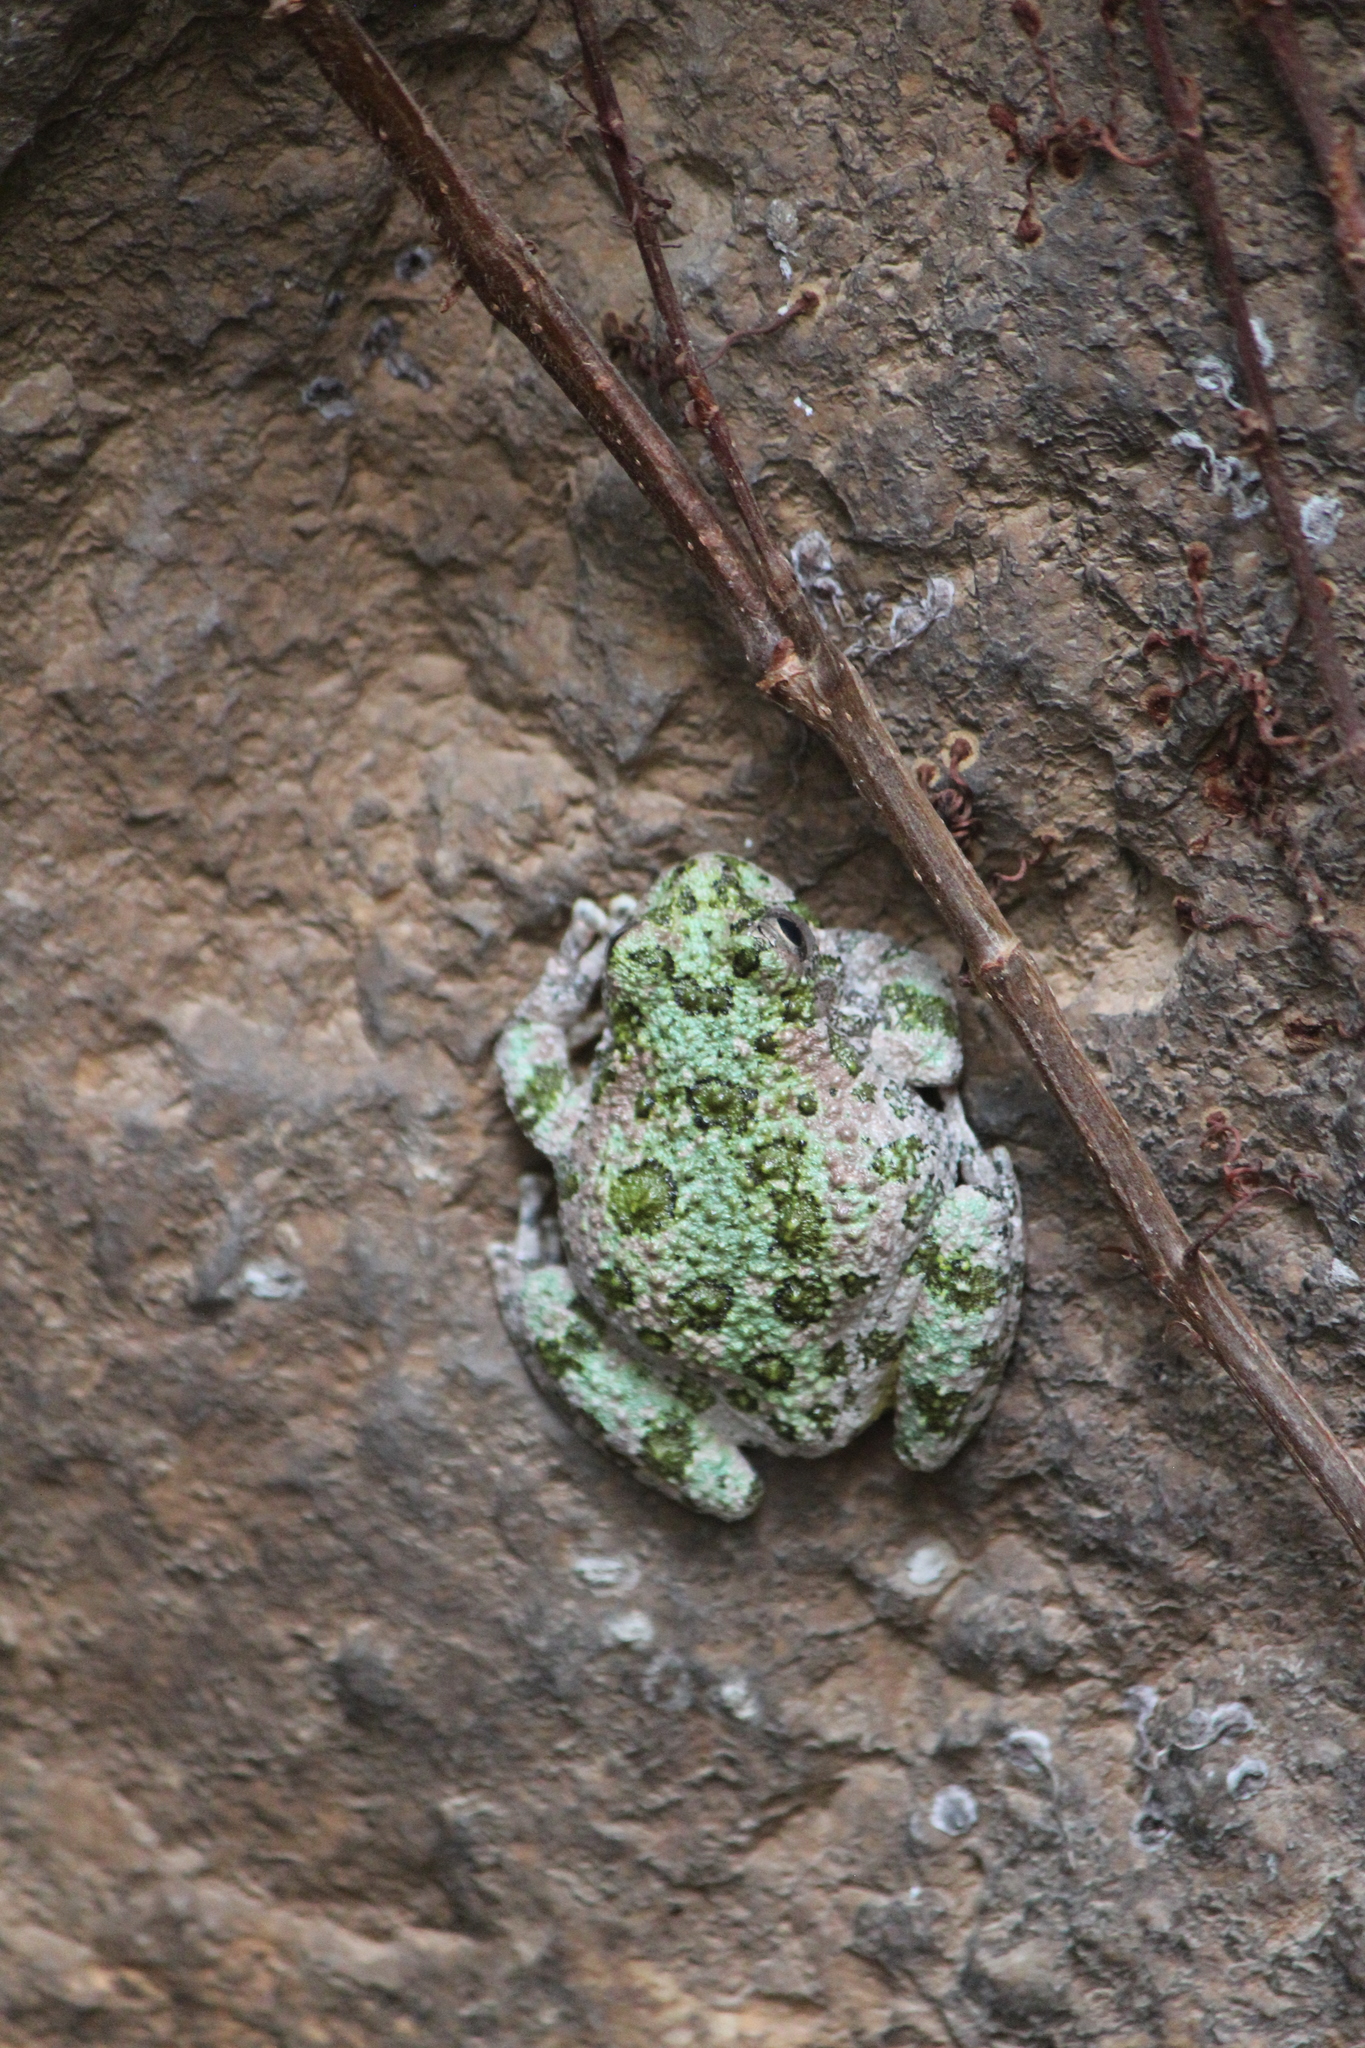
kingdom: Animalia
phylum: Chordata
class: Amphibia
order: Anura
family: Hylidae
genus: Dryophytes
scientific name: Dryophytes arenicolor
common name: Canyon treefrog
